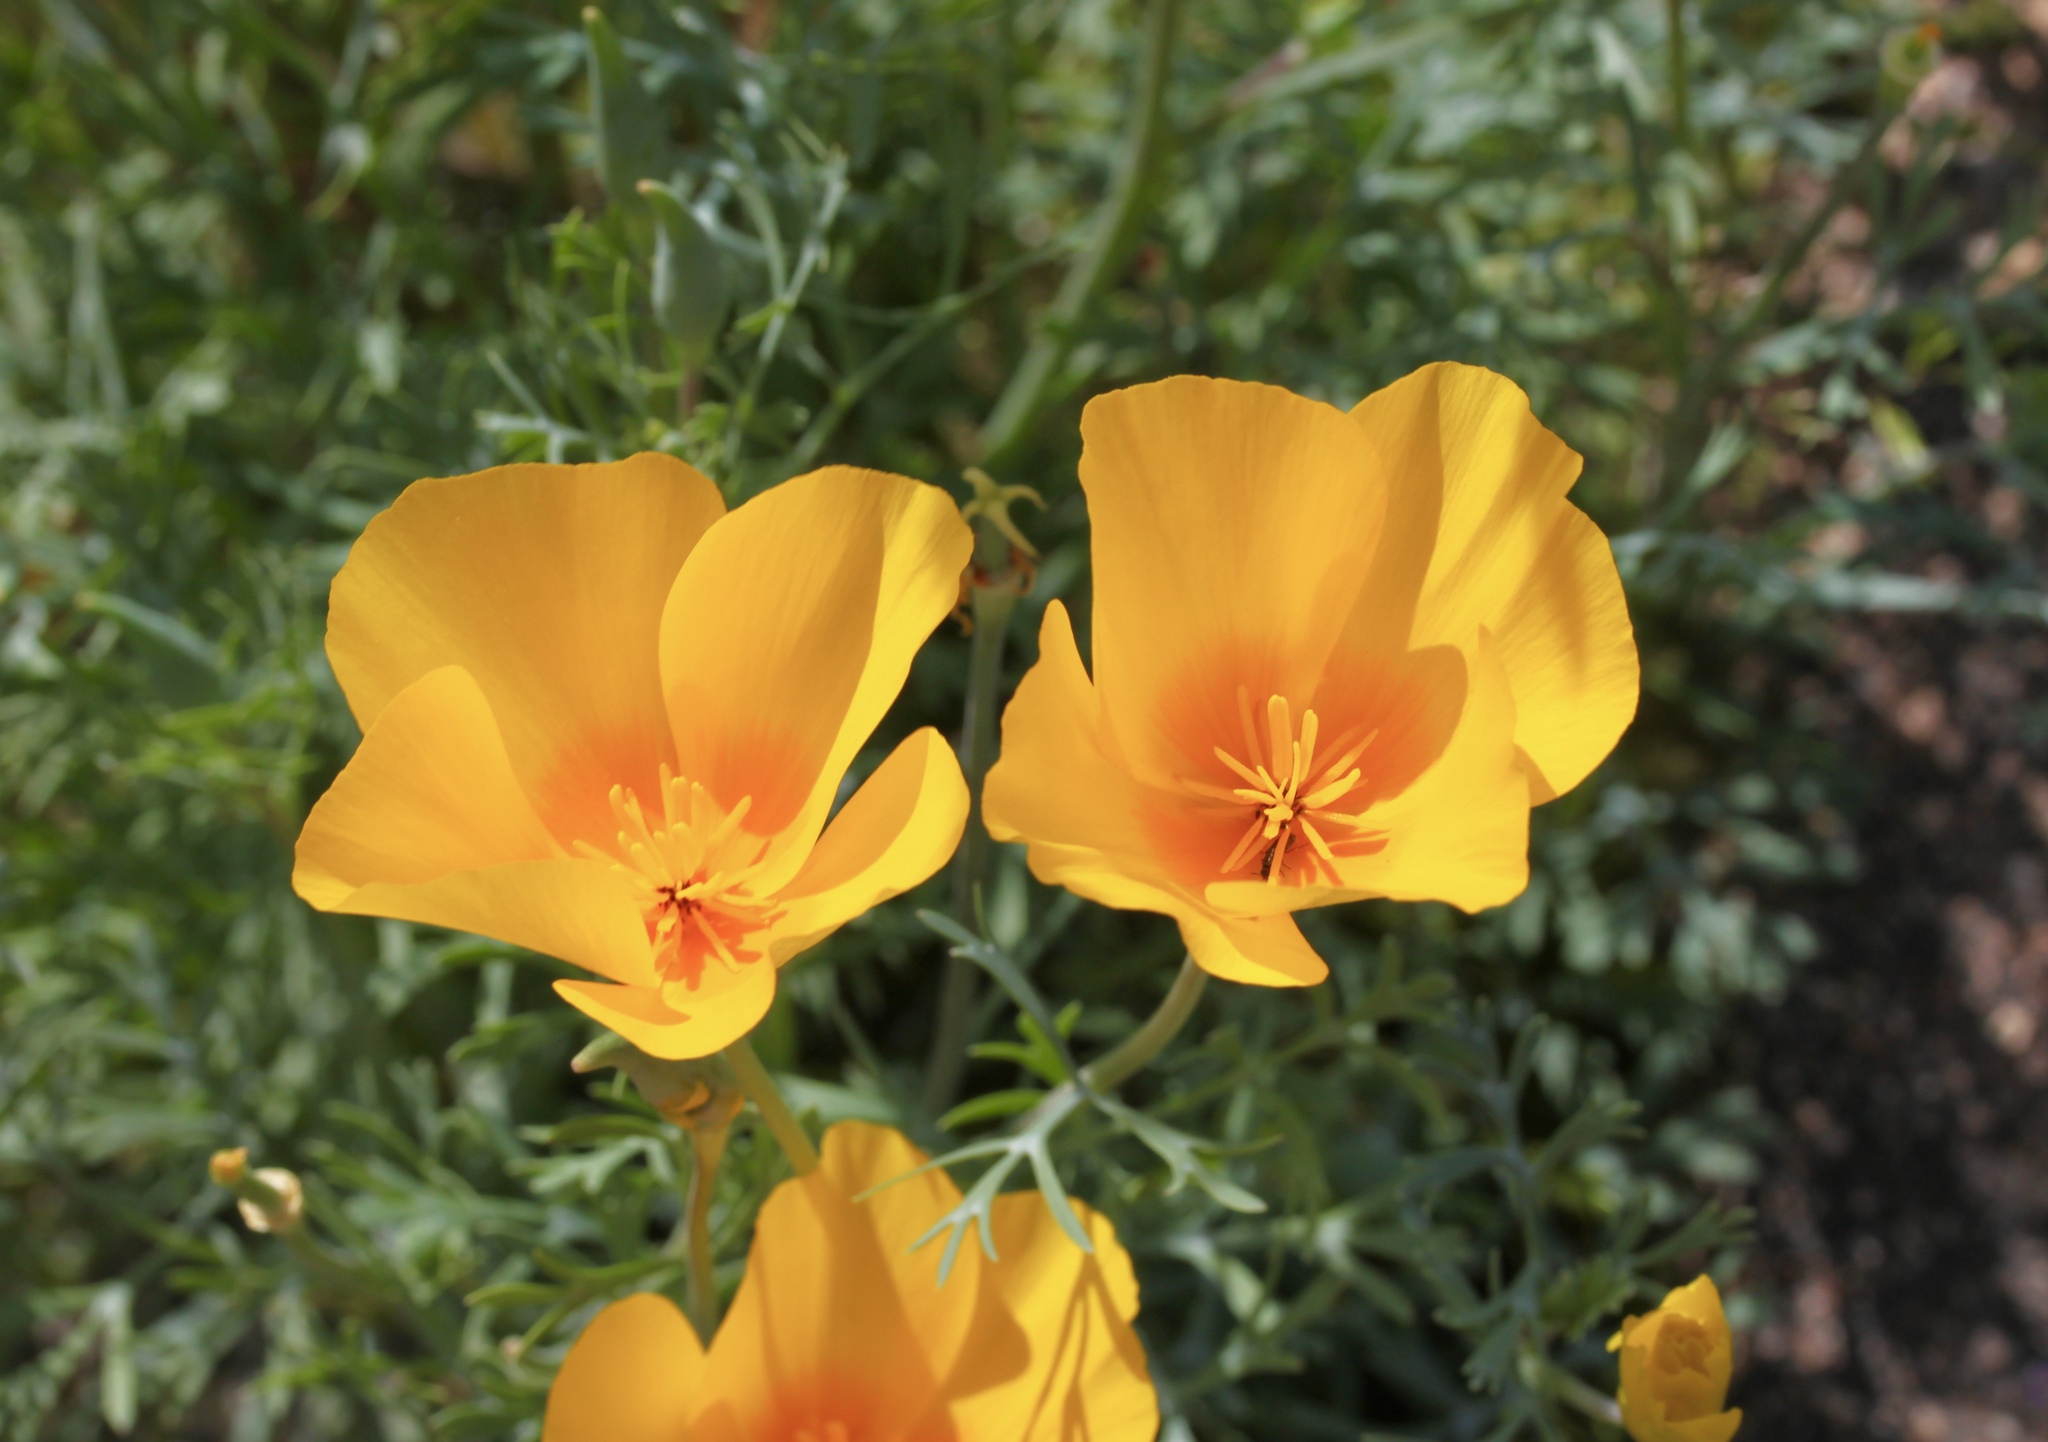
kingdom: Plantae
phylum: Tracheophyta
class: Magnoliopsida
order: Ranunculales
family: Papaveraceae
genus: Eschscholzia
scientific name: Eschscholzia californica
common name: California poppy
